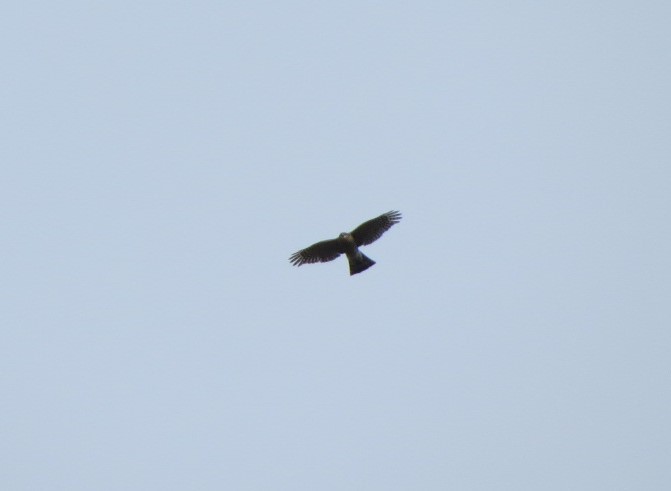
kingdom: Animalia
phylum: Chordata
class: Aves
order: Accipitriformes
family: Accipitridae
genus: Accipiter
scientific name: Accipiter striatus
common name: Sharp-shinned hawk
